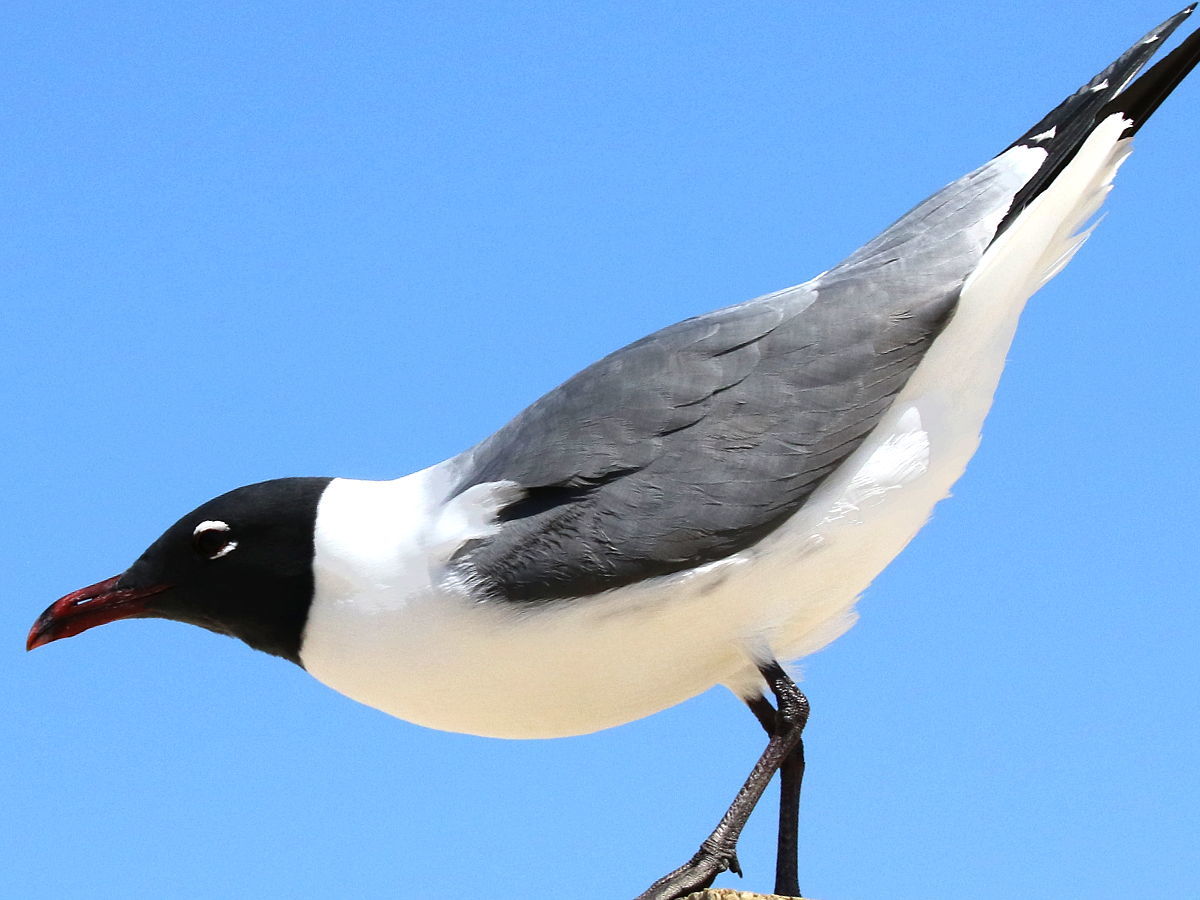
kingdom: Animalia
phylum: Chordata
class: Aves
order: Charadriiformes
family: Laridae
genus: Leucophaeus
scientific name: Leucophaeus atricilla
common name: Laughing gull
